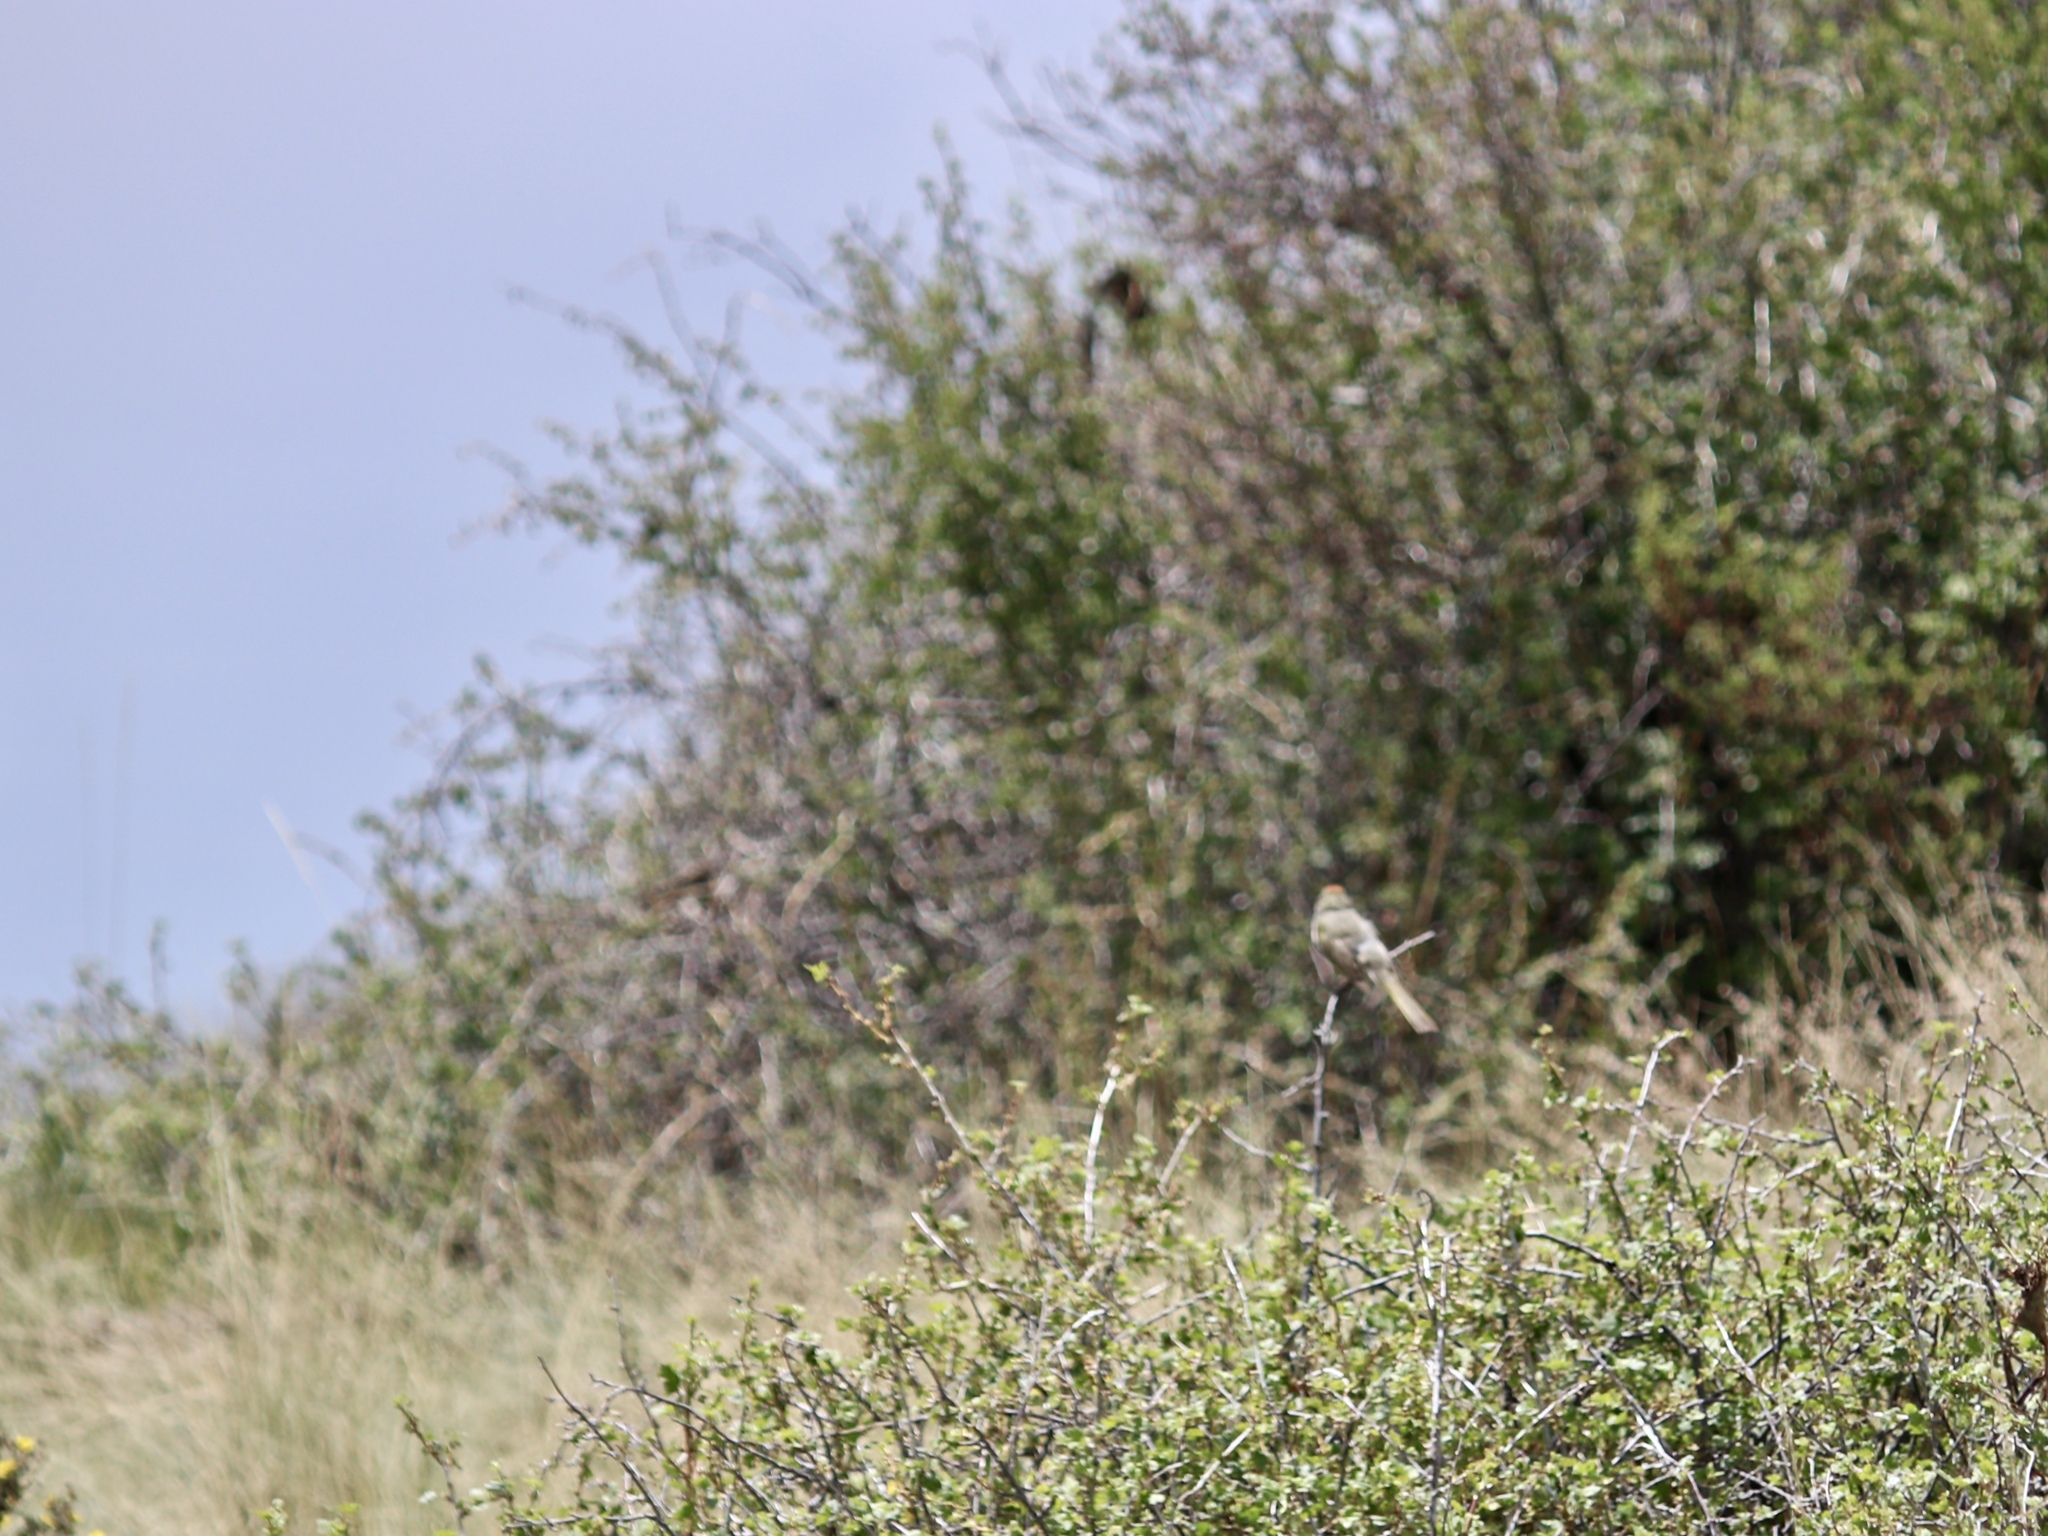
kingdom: Animalia
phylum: Chordata
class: Aves
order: Passeriformes
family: Passerellidae
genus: Pipilo
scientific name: Pipilo chlorurus
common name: Green-tailed towhee
